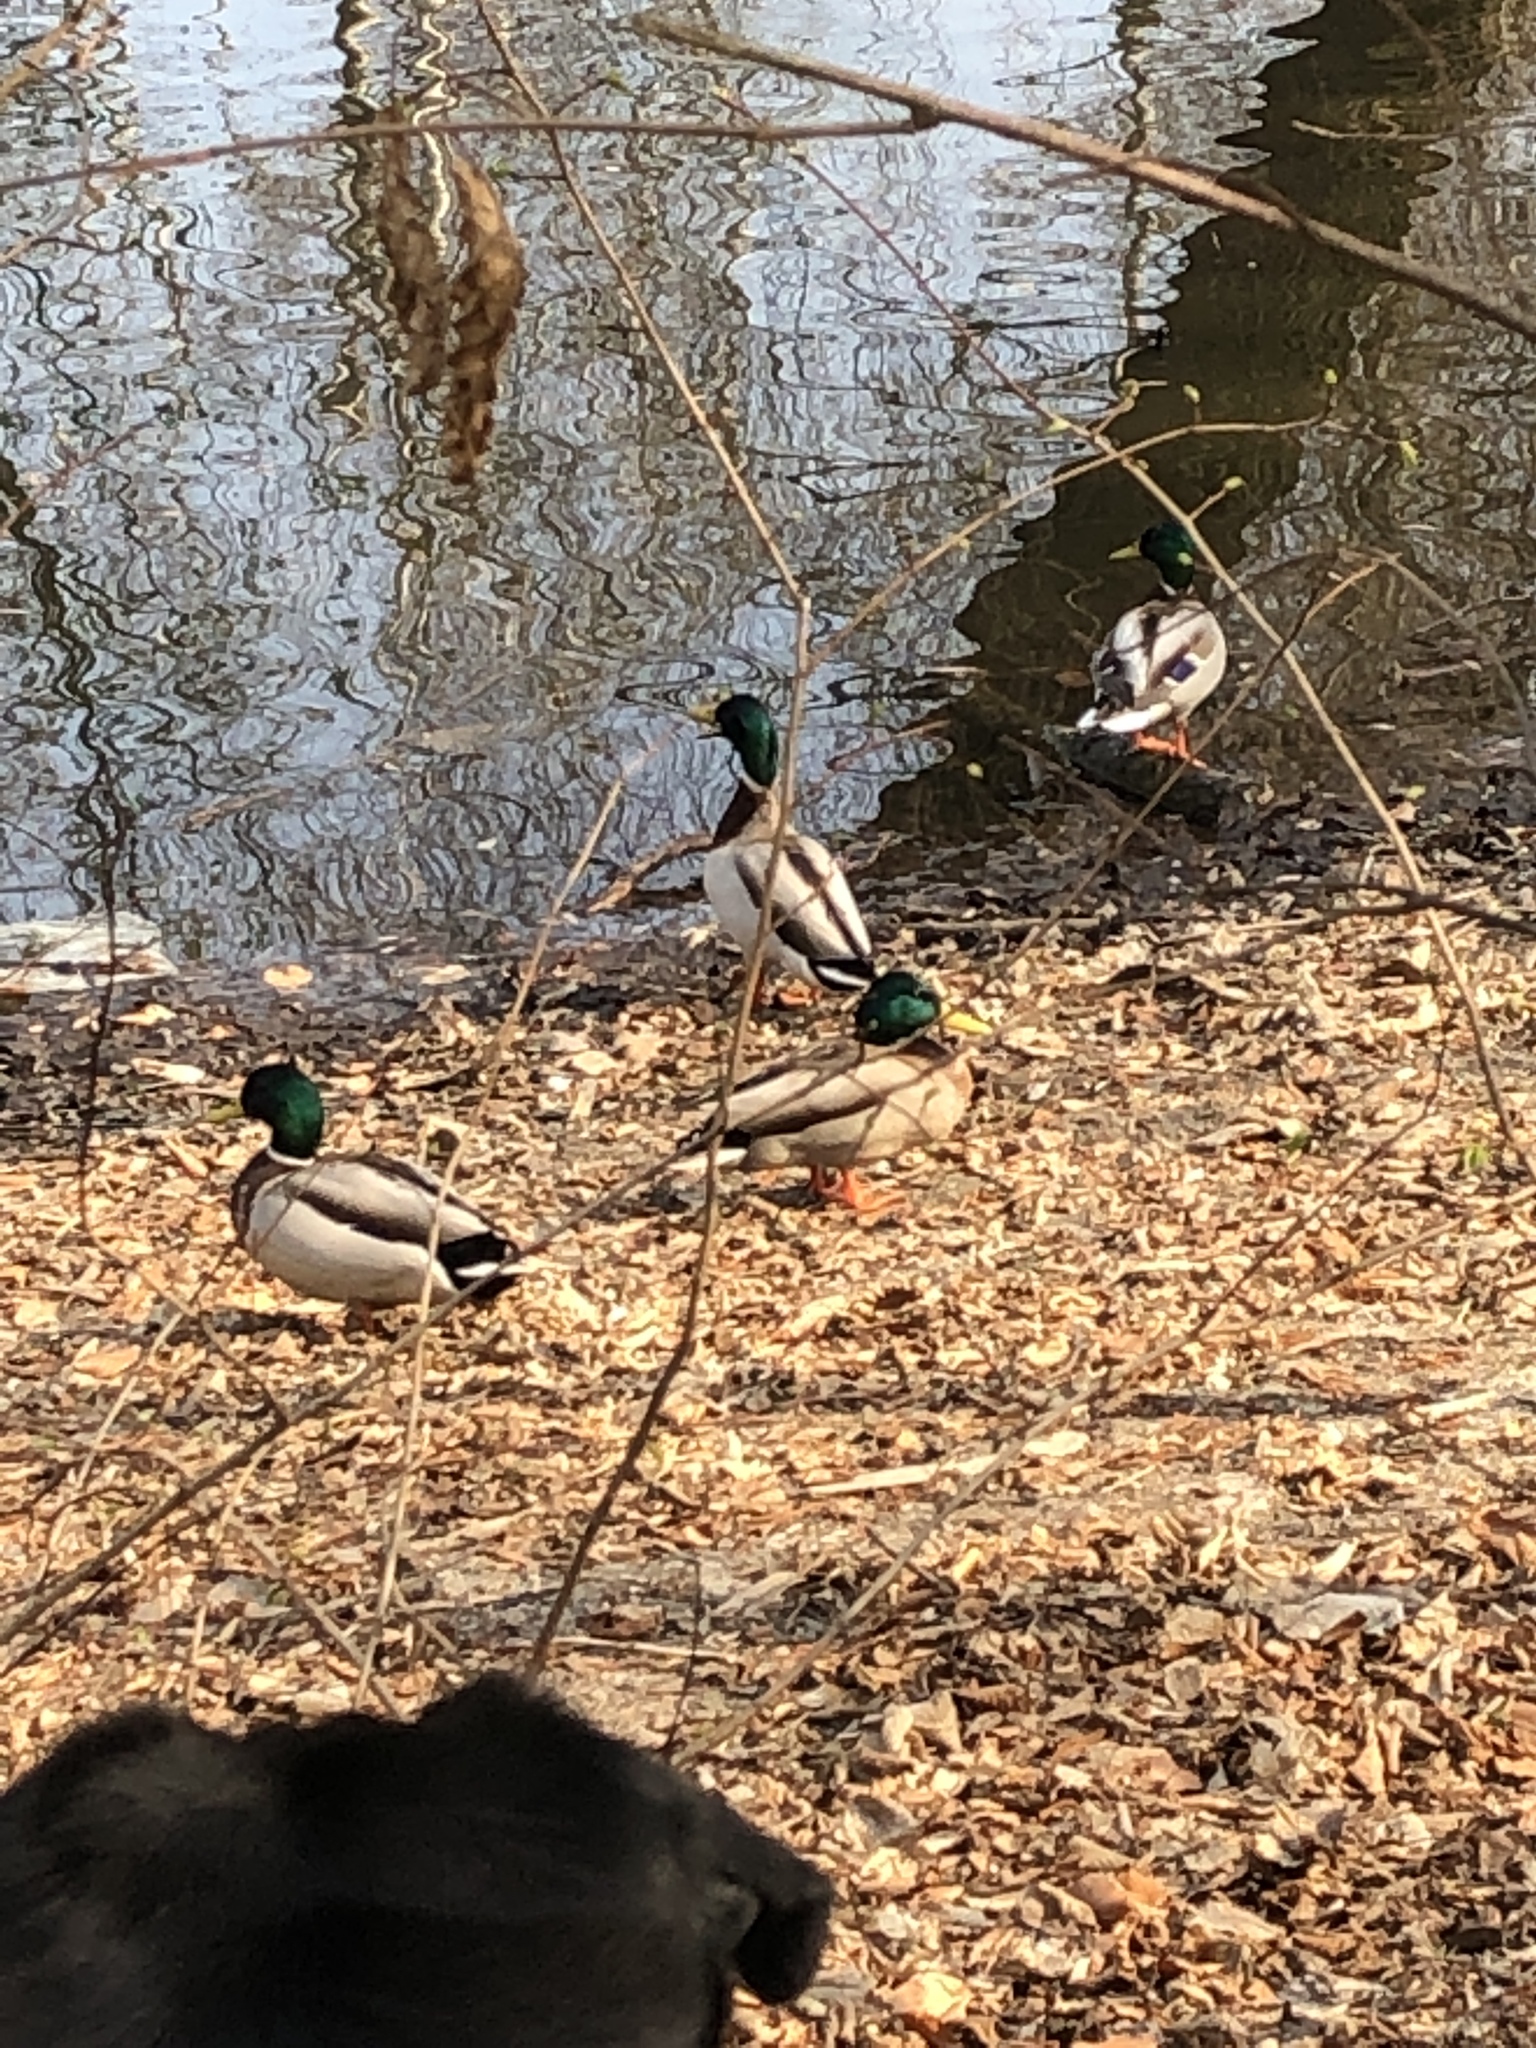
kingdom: Animalia
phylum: Chordata
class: Aves
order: Anseriformes
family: Anatidae
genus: Anas
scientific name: Anas platyrhynchos
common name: Mallard
